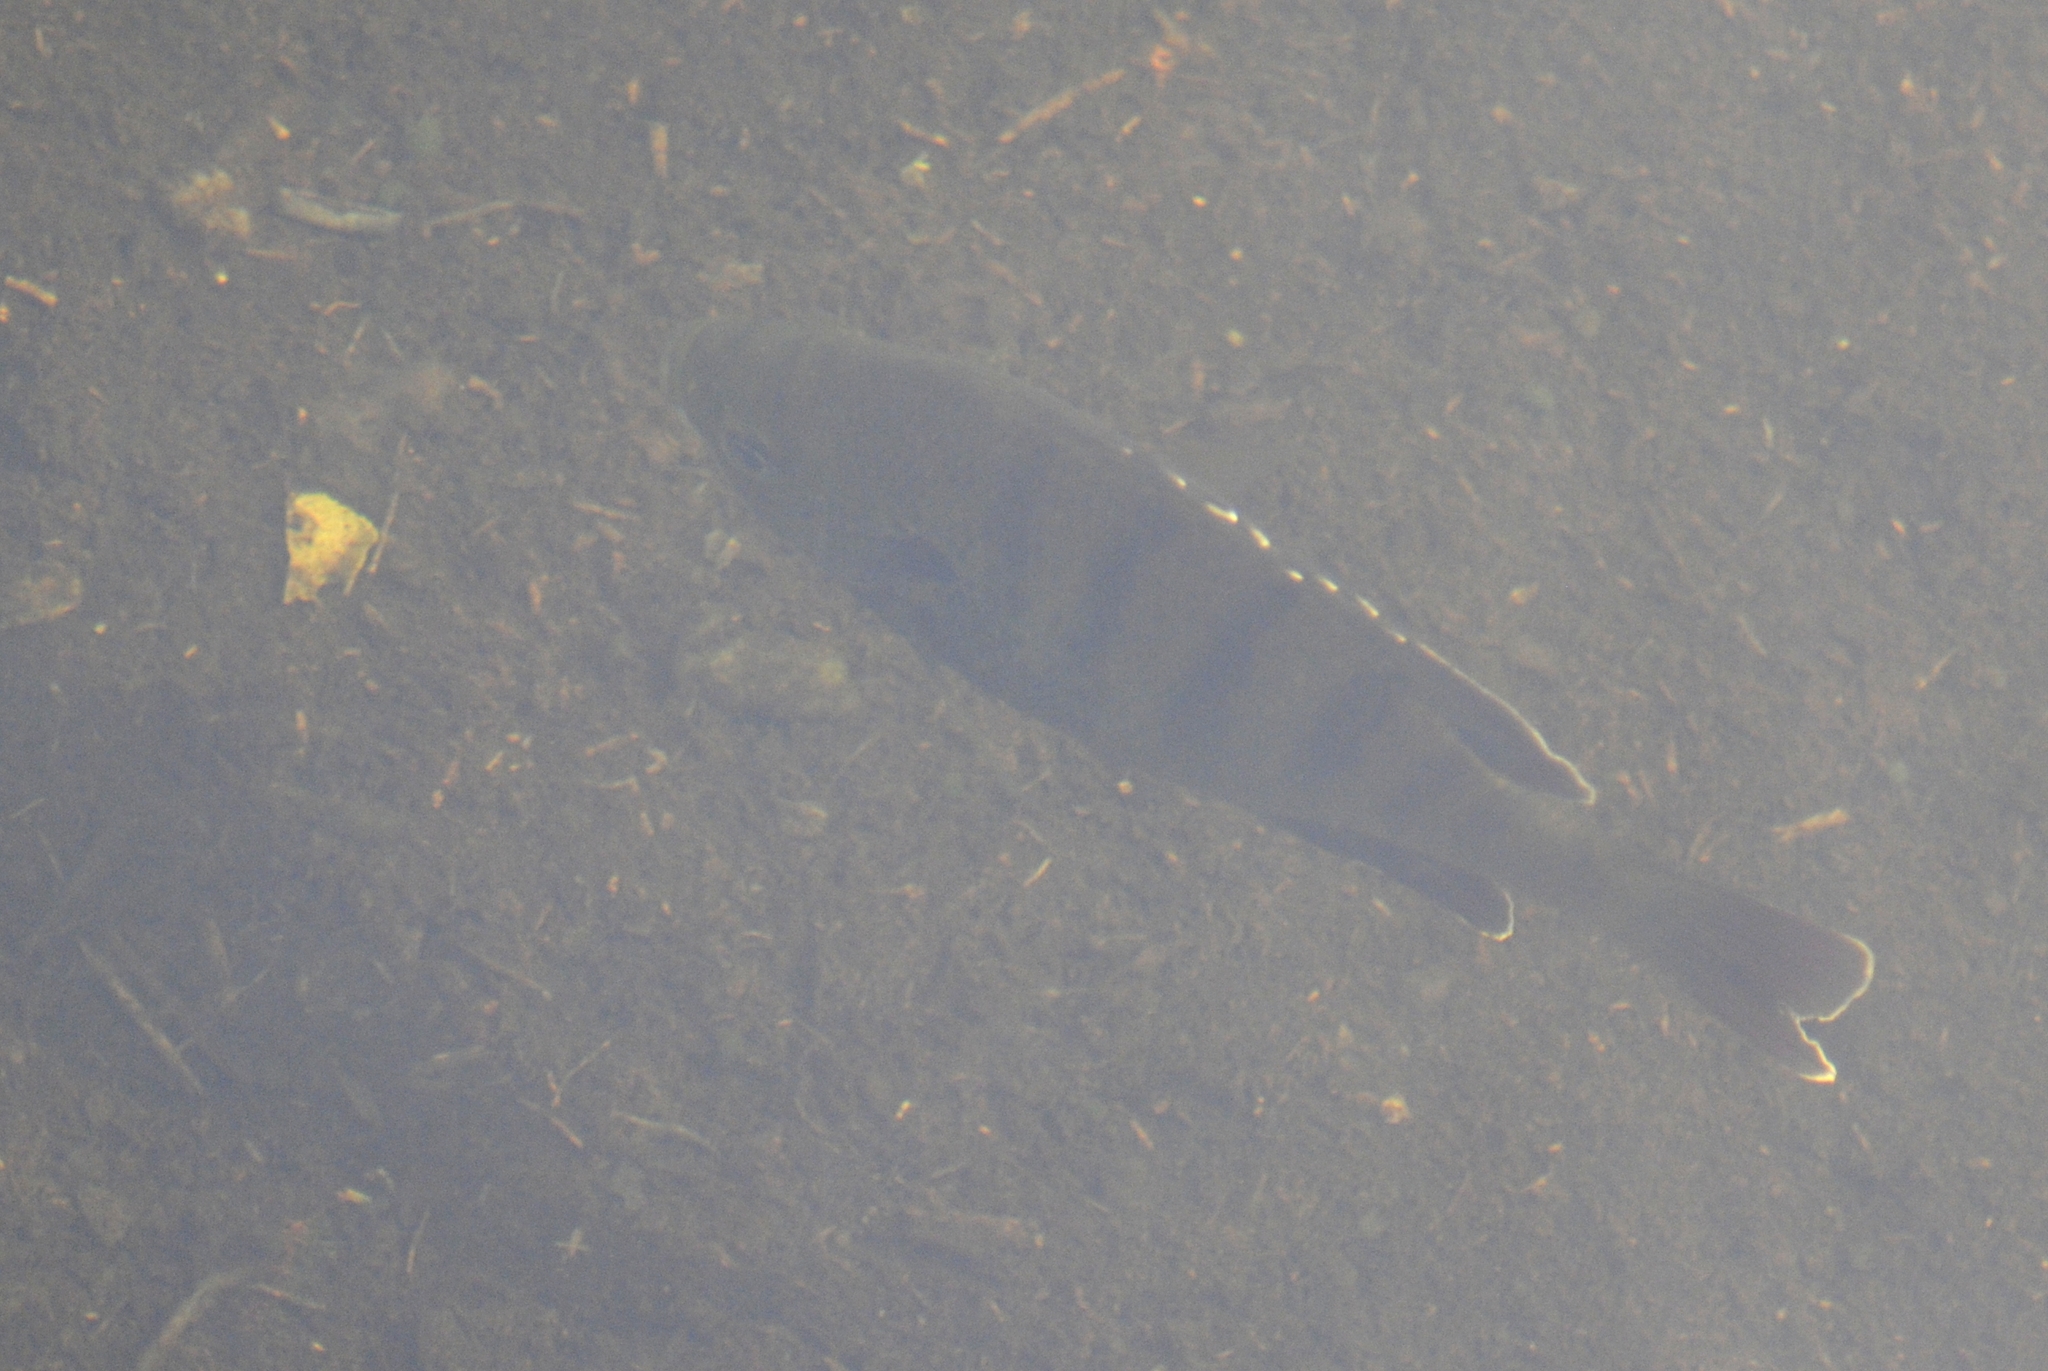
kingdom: Animalia
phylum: Chordata
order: Perciformes
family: Centrarchidae
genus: Lepomis
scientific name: Lepomis macrochirus
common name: Bluegill
